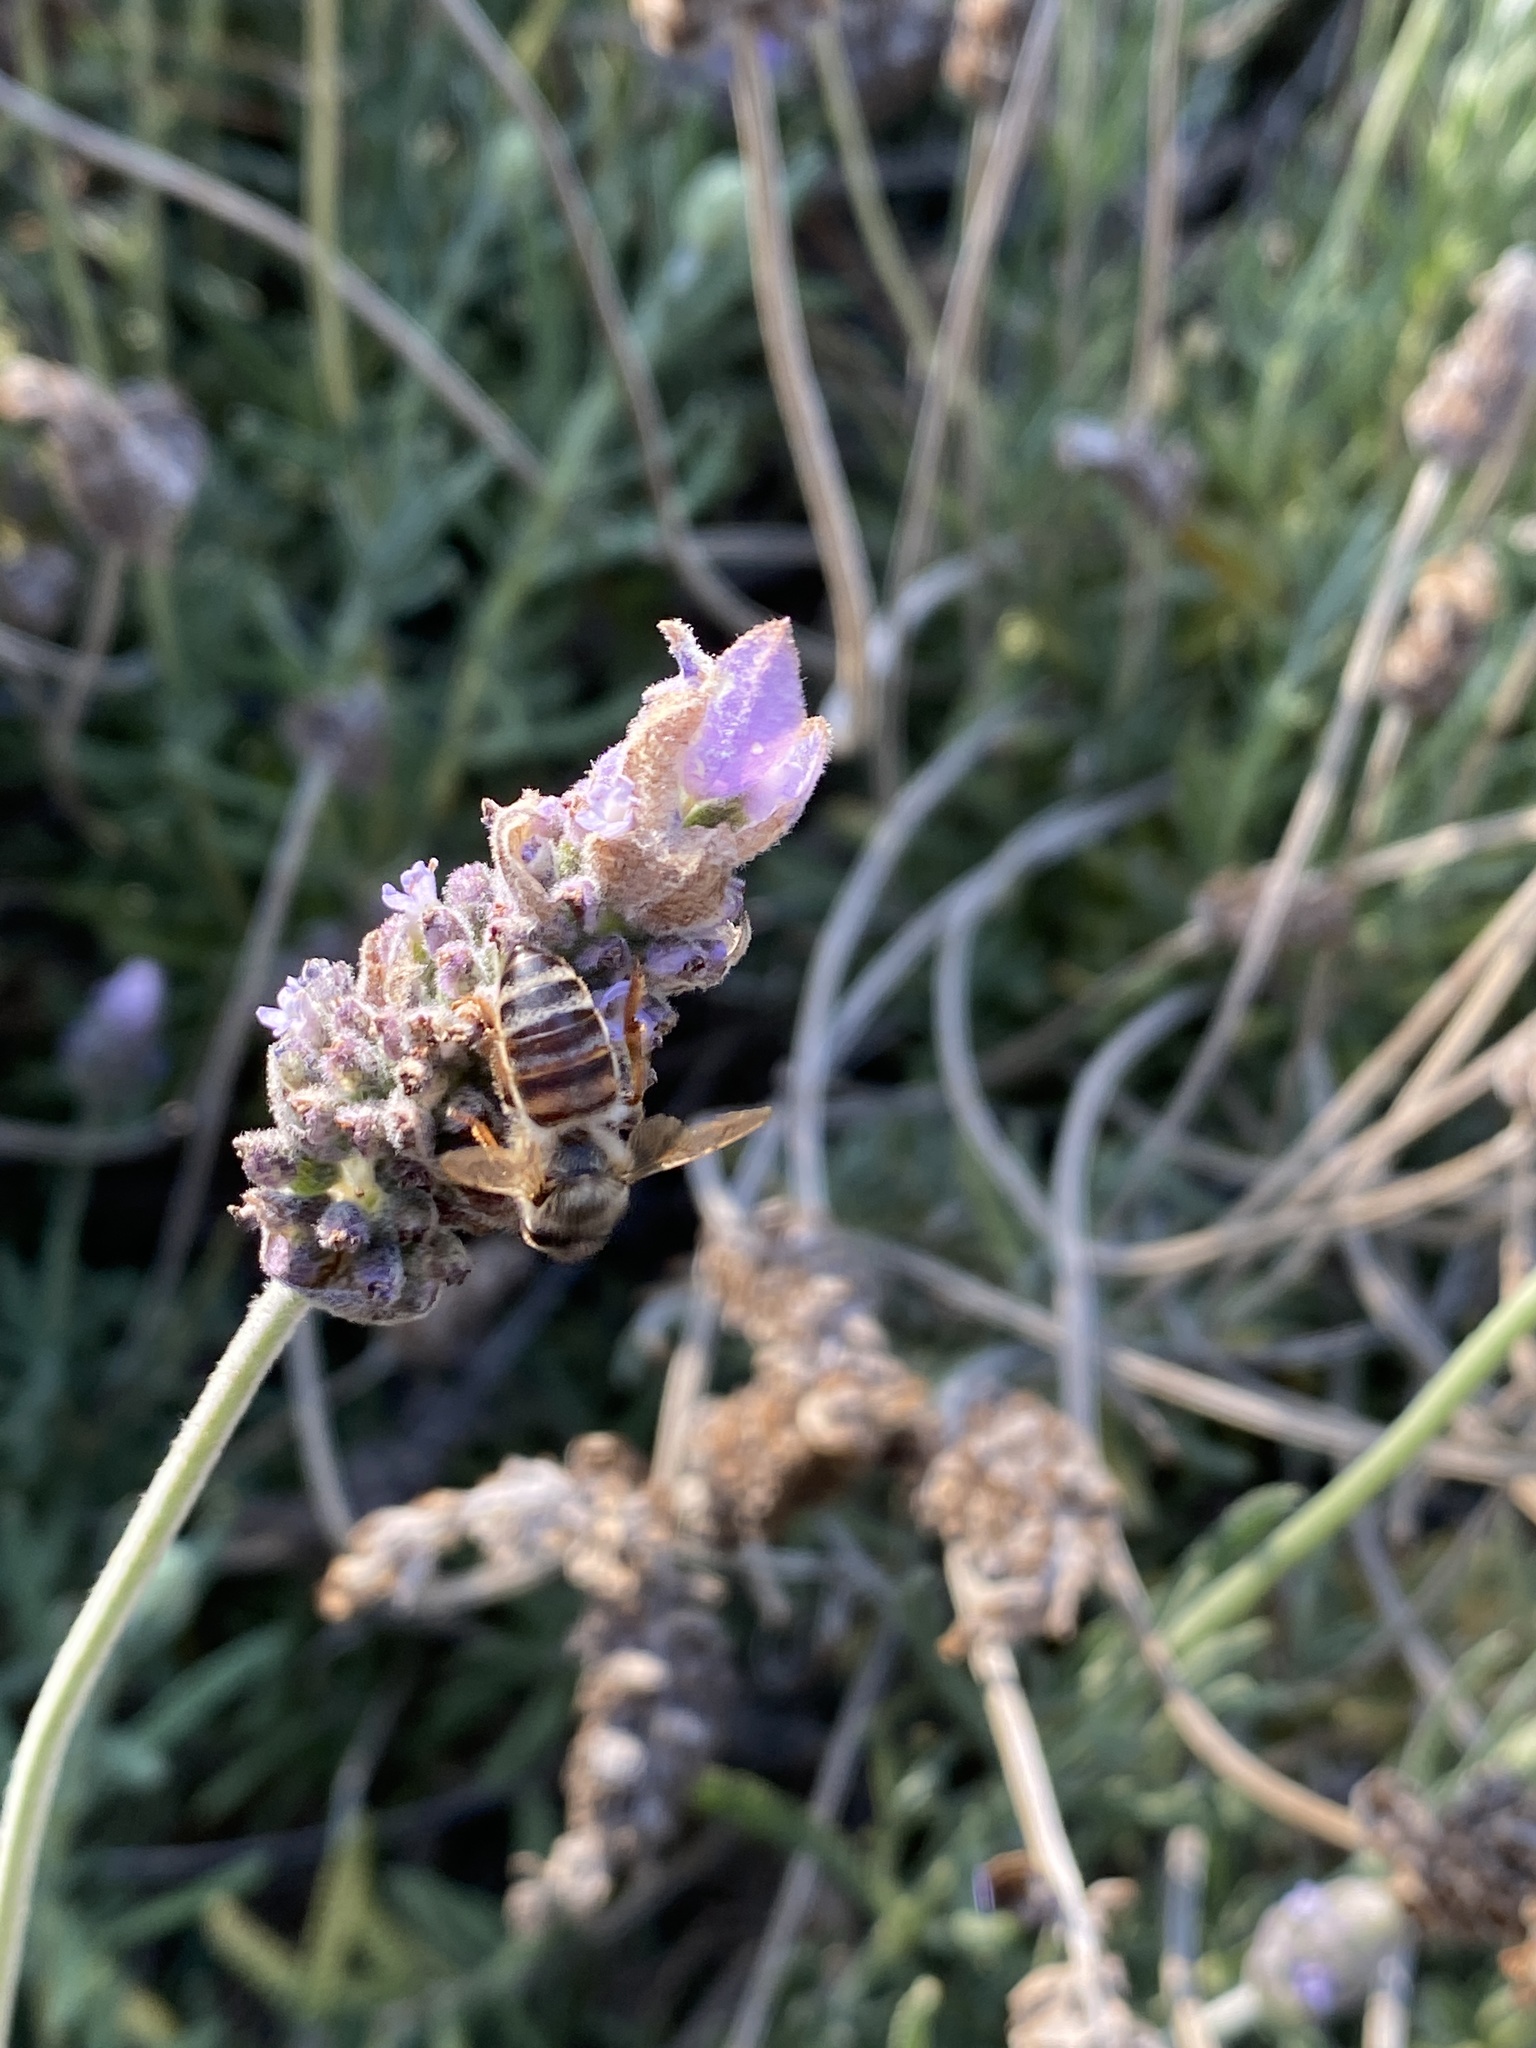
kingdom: Animalia
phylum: Arthropoda
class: Insecta
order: Hymenoptera
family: Apidae
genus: Apis
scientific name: Apis mellifera
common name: Honey bee
